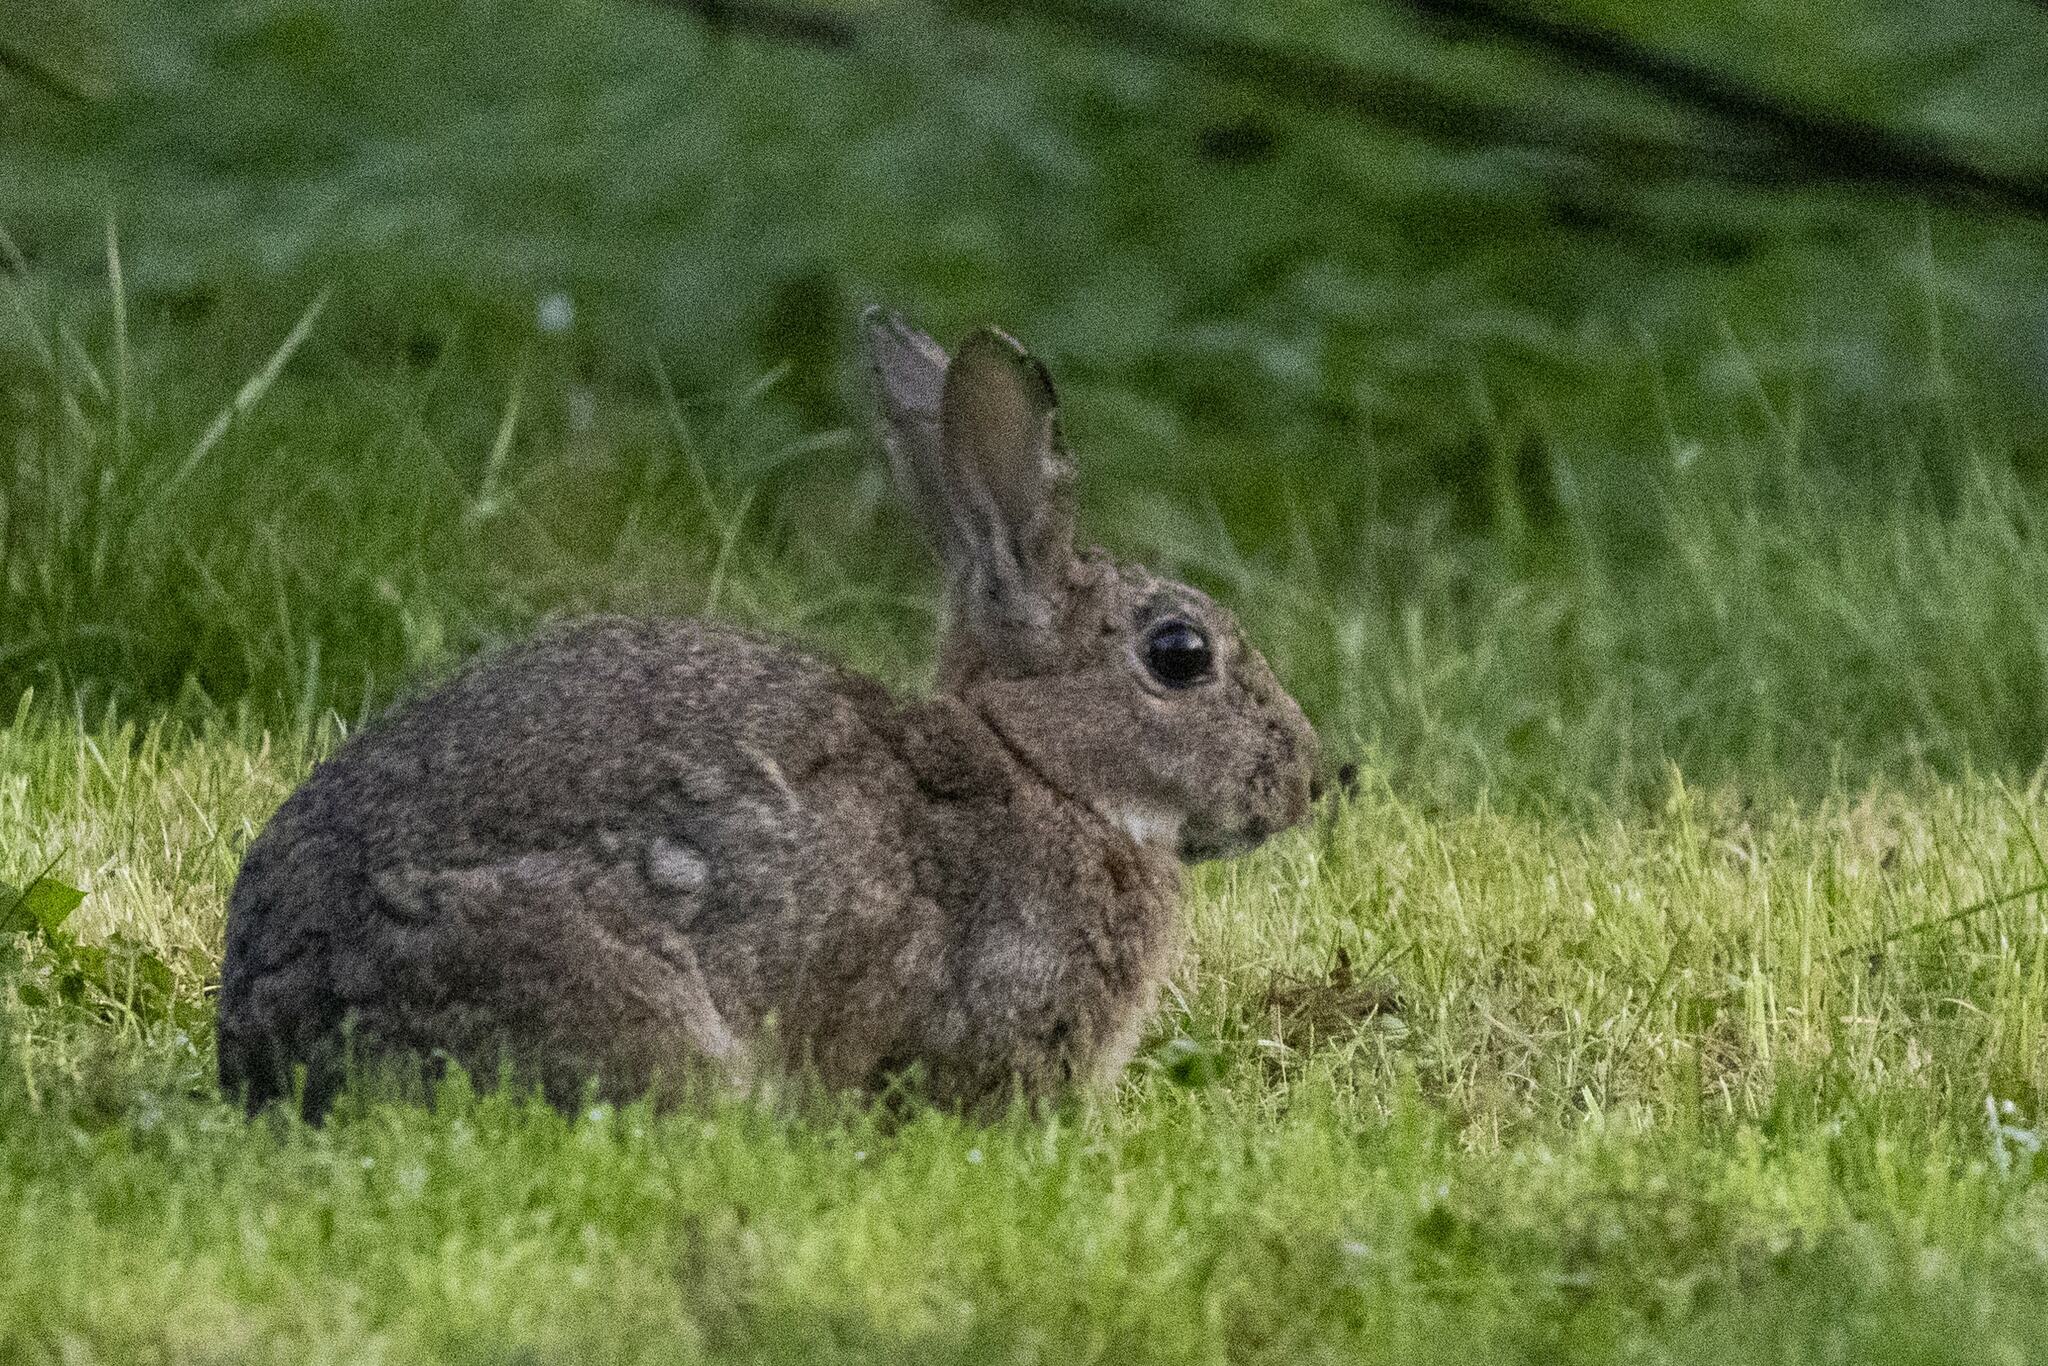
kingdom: Animalia
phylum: Chordata
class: Mammalia
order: Lagomorpha
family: Leporidae
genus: Oryctolagus
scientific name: Oryctolagus cuniculus
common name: European rabbit
